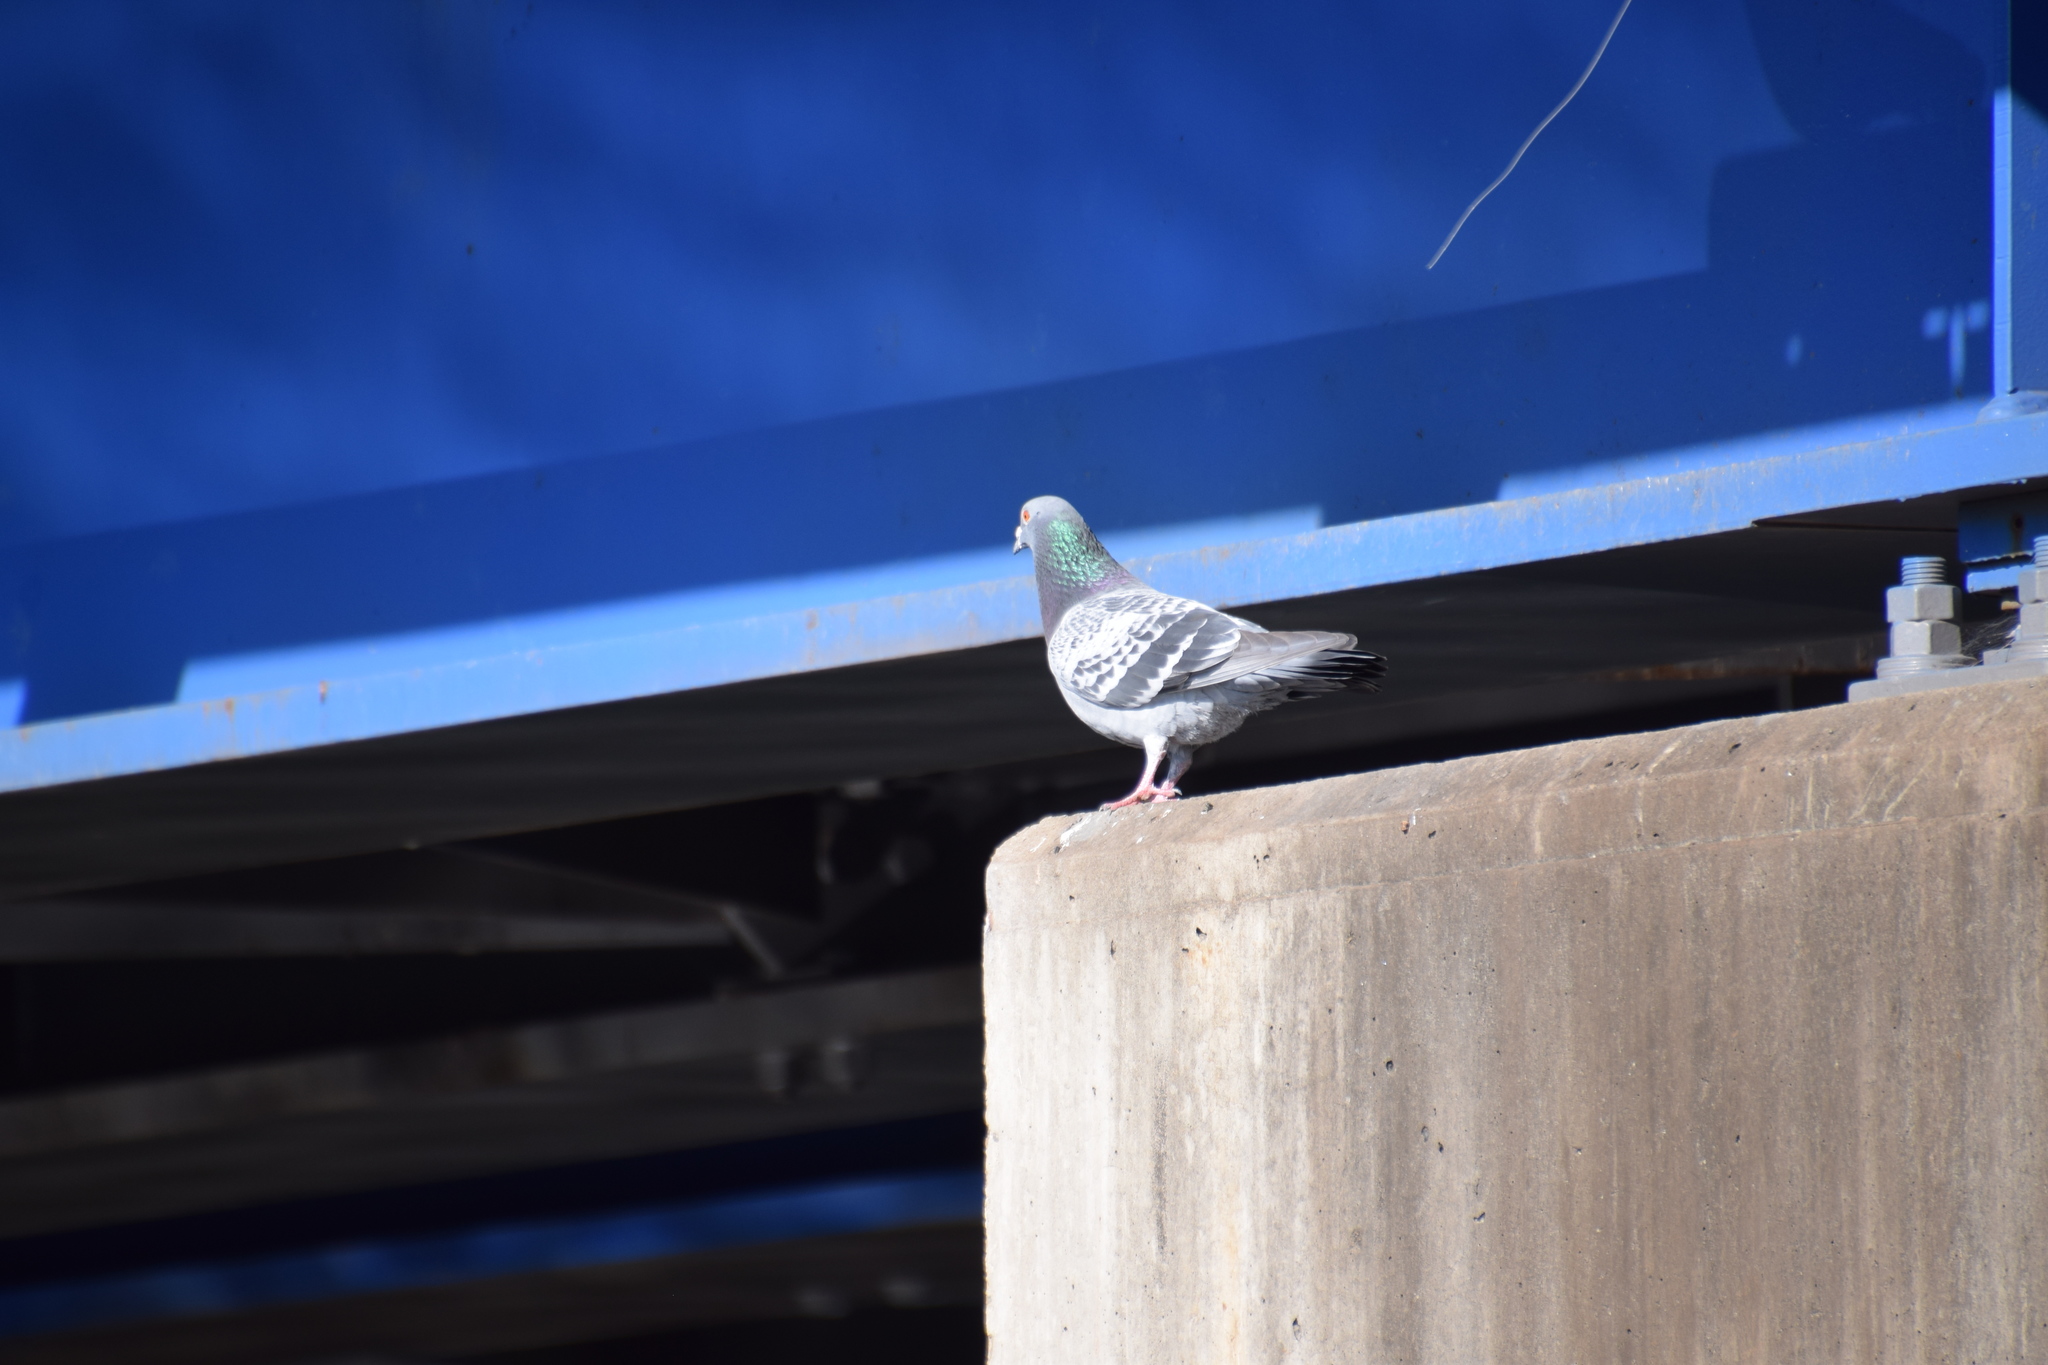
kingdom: Animalia
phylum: Chordata
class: Aves
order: Columbiformes
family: Columbidae
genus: Columba
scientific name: Columba livia
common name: Rock pigeon
